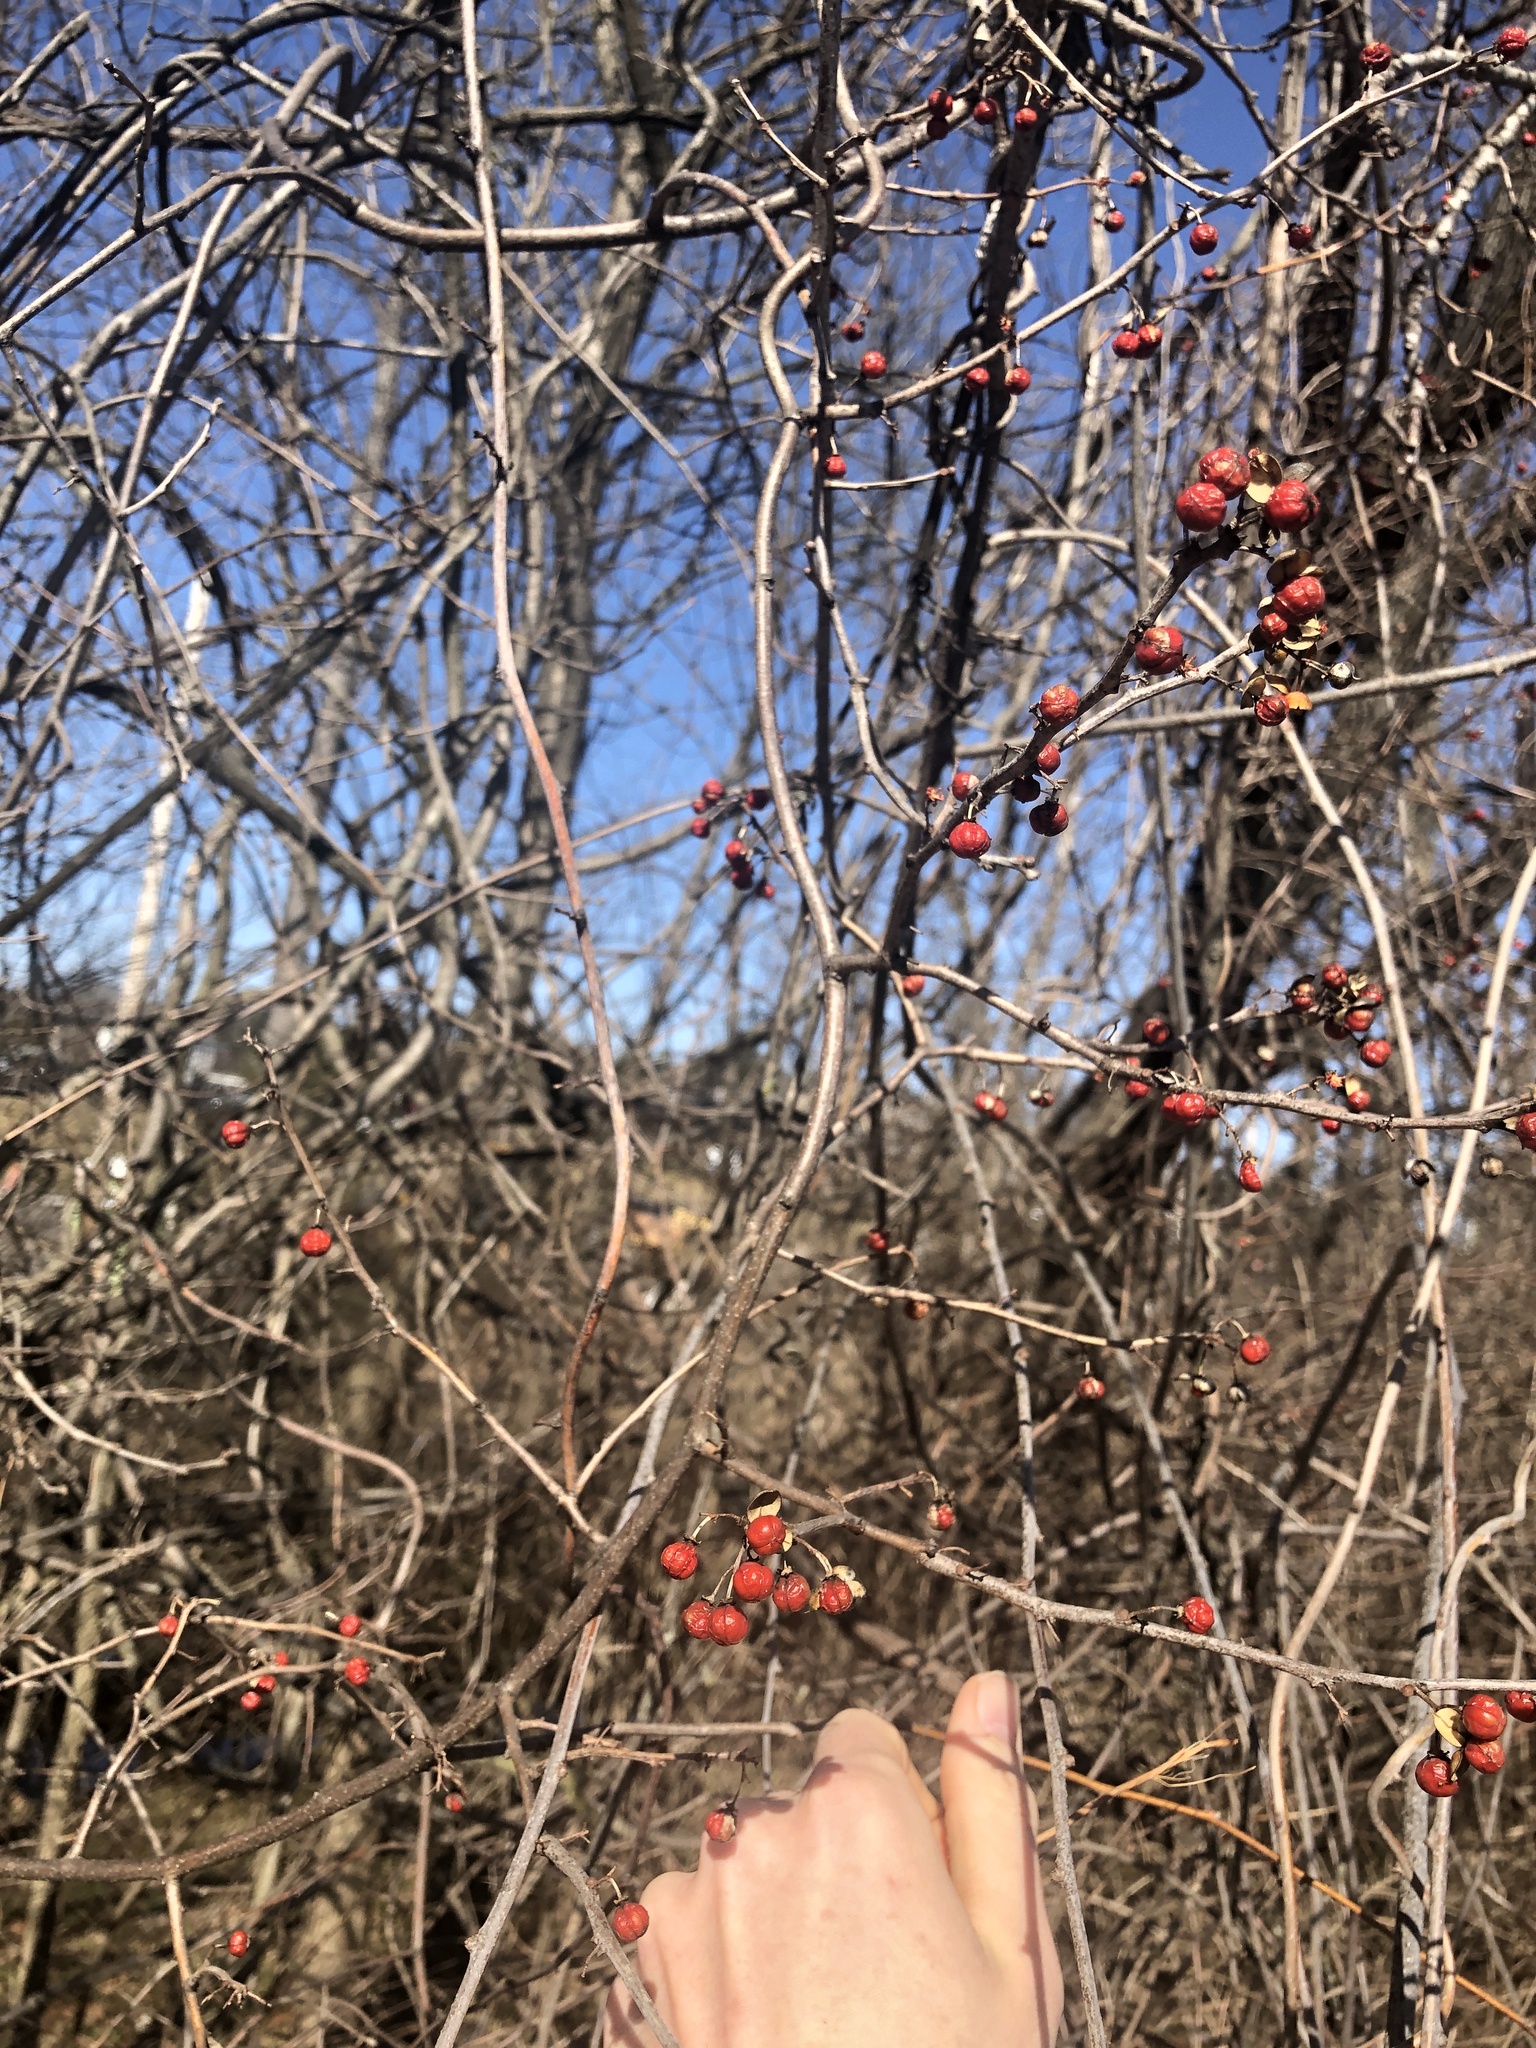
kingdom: Plantae
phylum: Tracheophyta
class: Magnoliopsida
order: Celastrales
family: Celastraceae
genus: Celastrus
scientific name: Celastrus orbiculatus
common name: Oriental bittersweet
